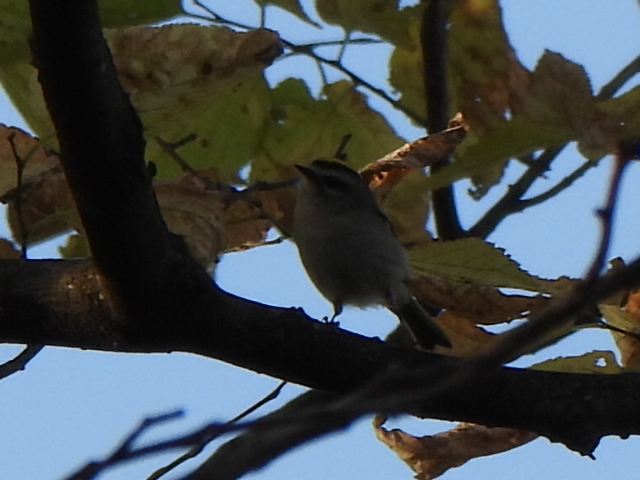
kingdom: Animalia
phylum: Chordata
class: Aves
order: Passeriformes
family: Regulidae
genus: Regulus
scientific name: Regulus satrapa
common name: Golden-crowned kinglet
